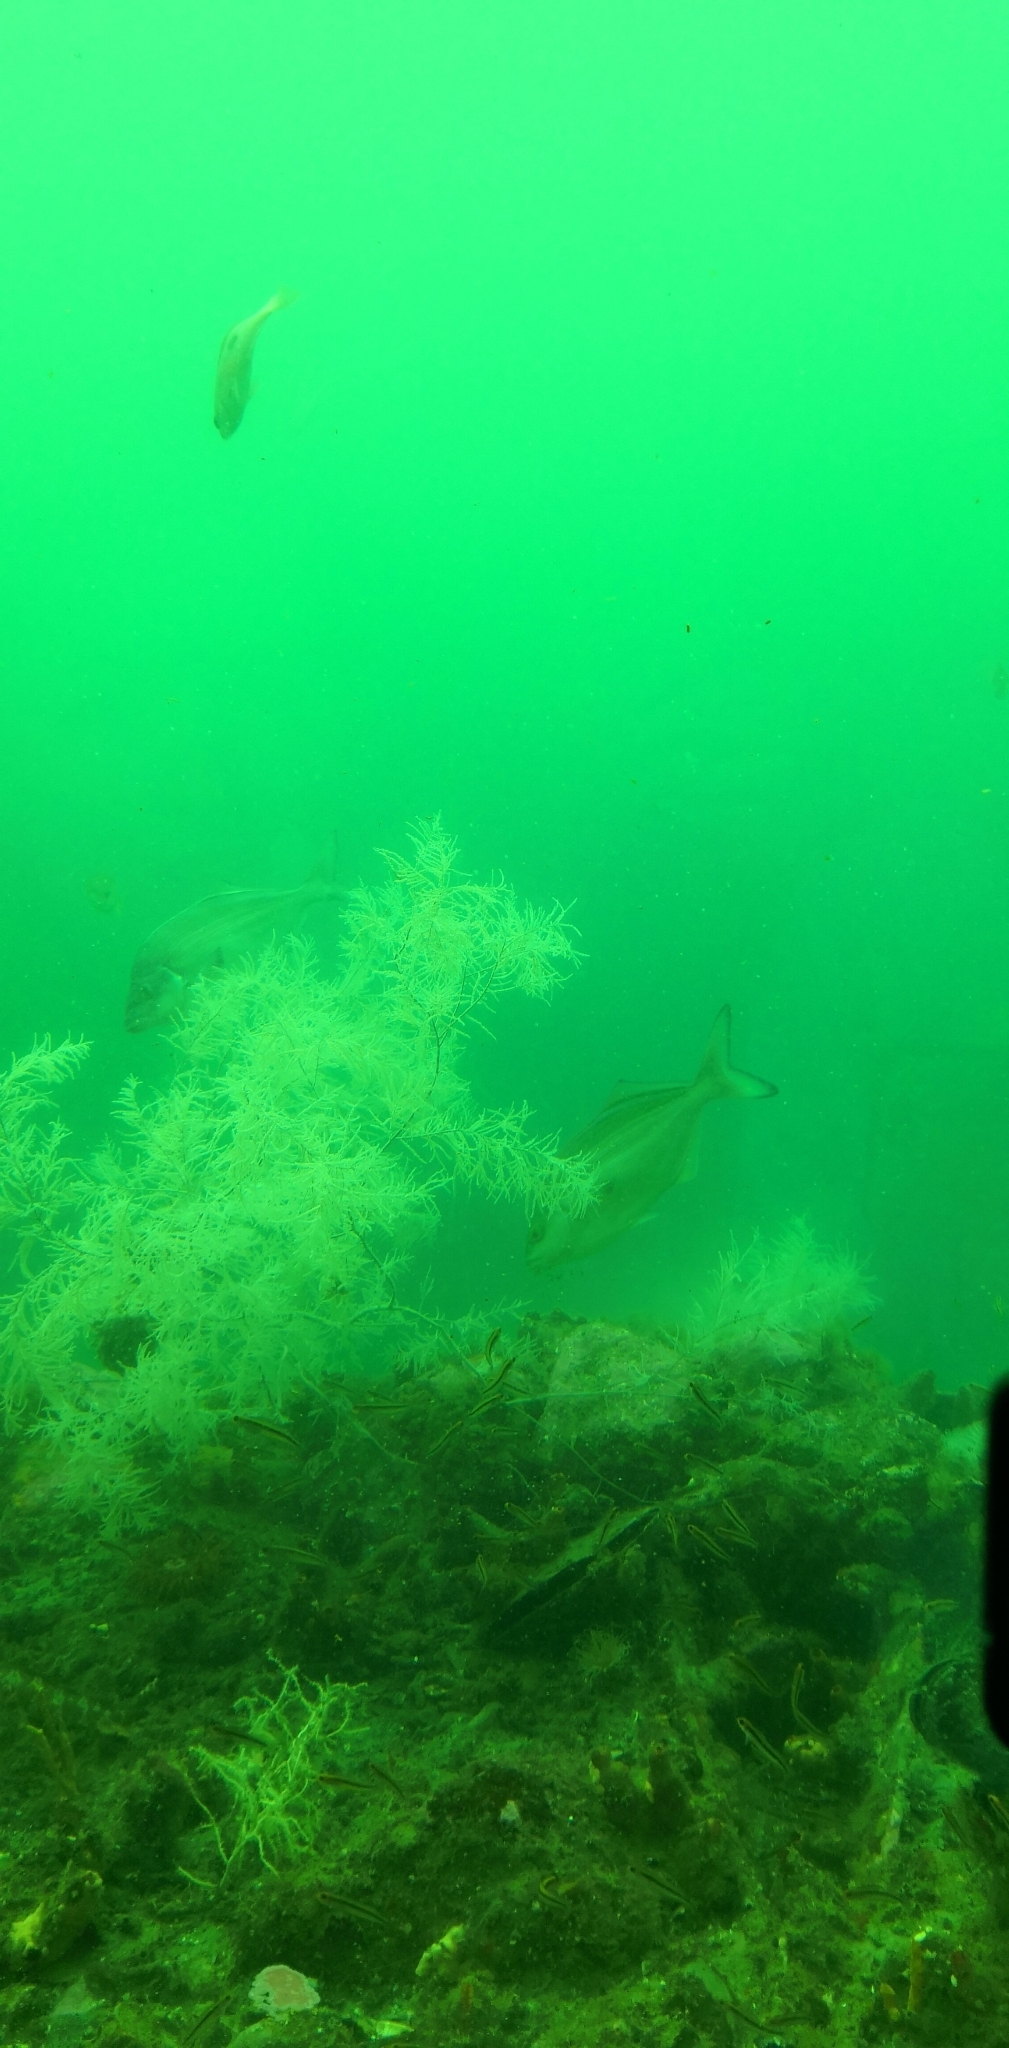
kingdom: Animalia
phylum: Chordata
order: Perciformes
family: Latridae
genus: Latridopsis
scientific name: Latridopsis forsteri
